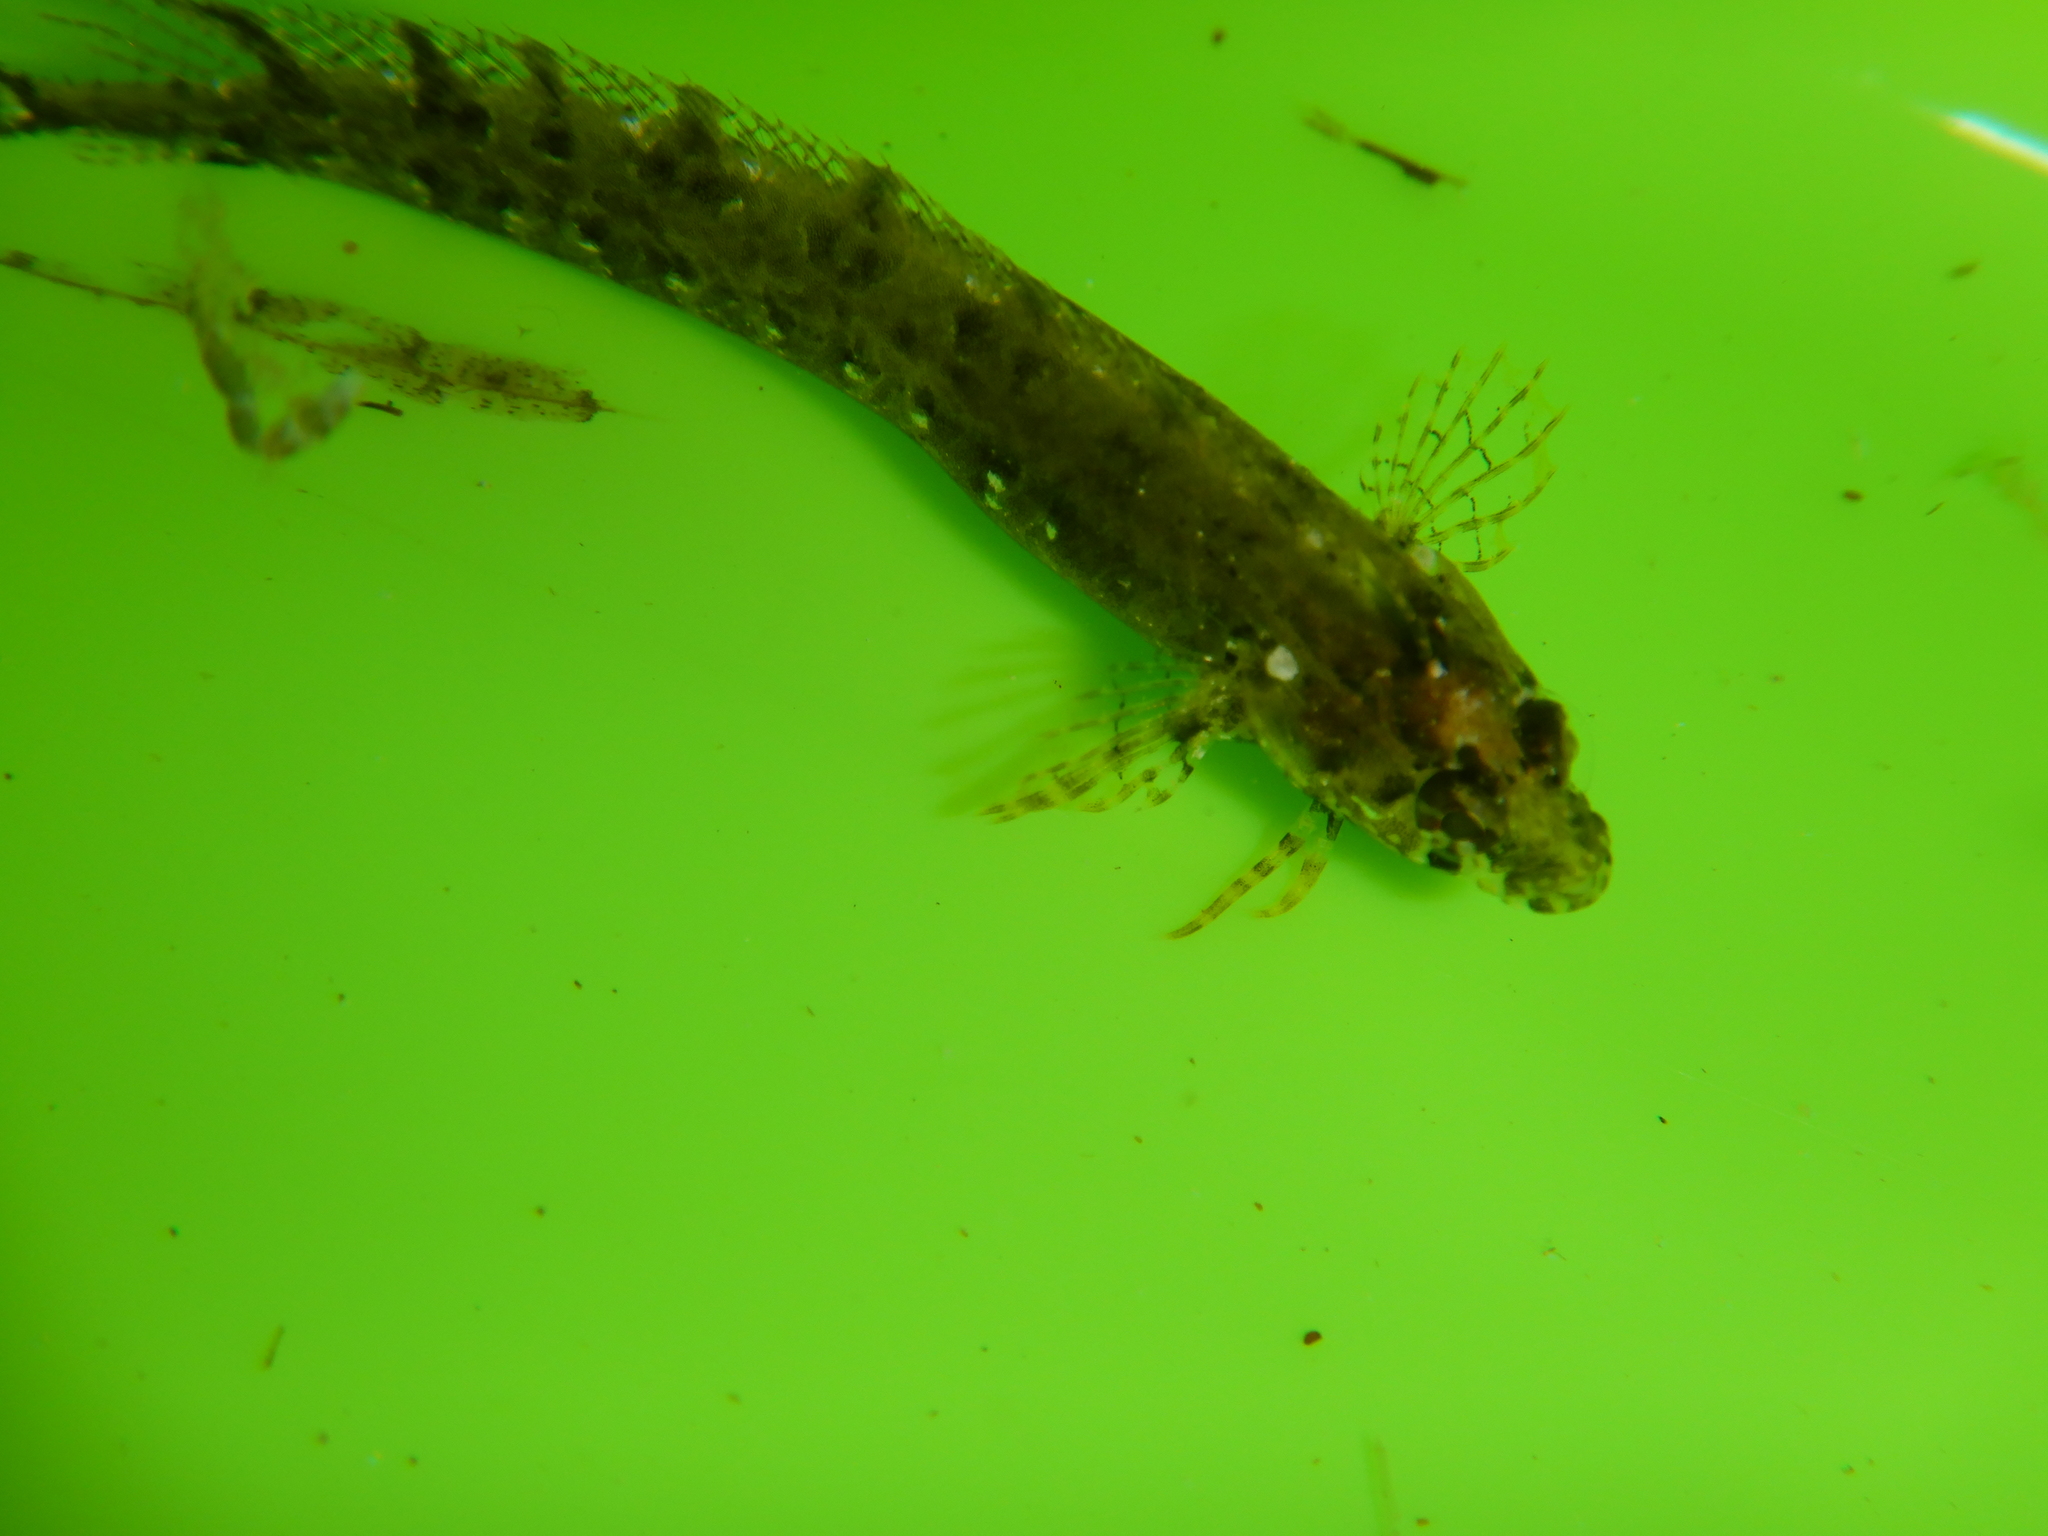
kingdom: Animalia
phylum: Chordata
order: Perciformes
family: Clinidae
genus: Clinitrachus
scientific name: Clinitrachus argentatus
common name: Cline
